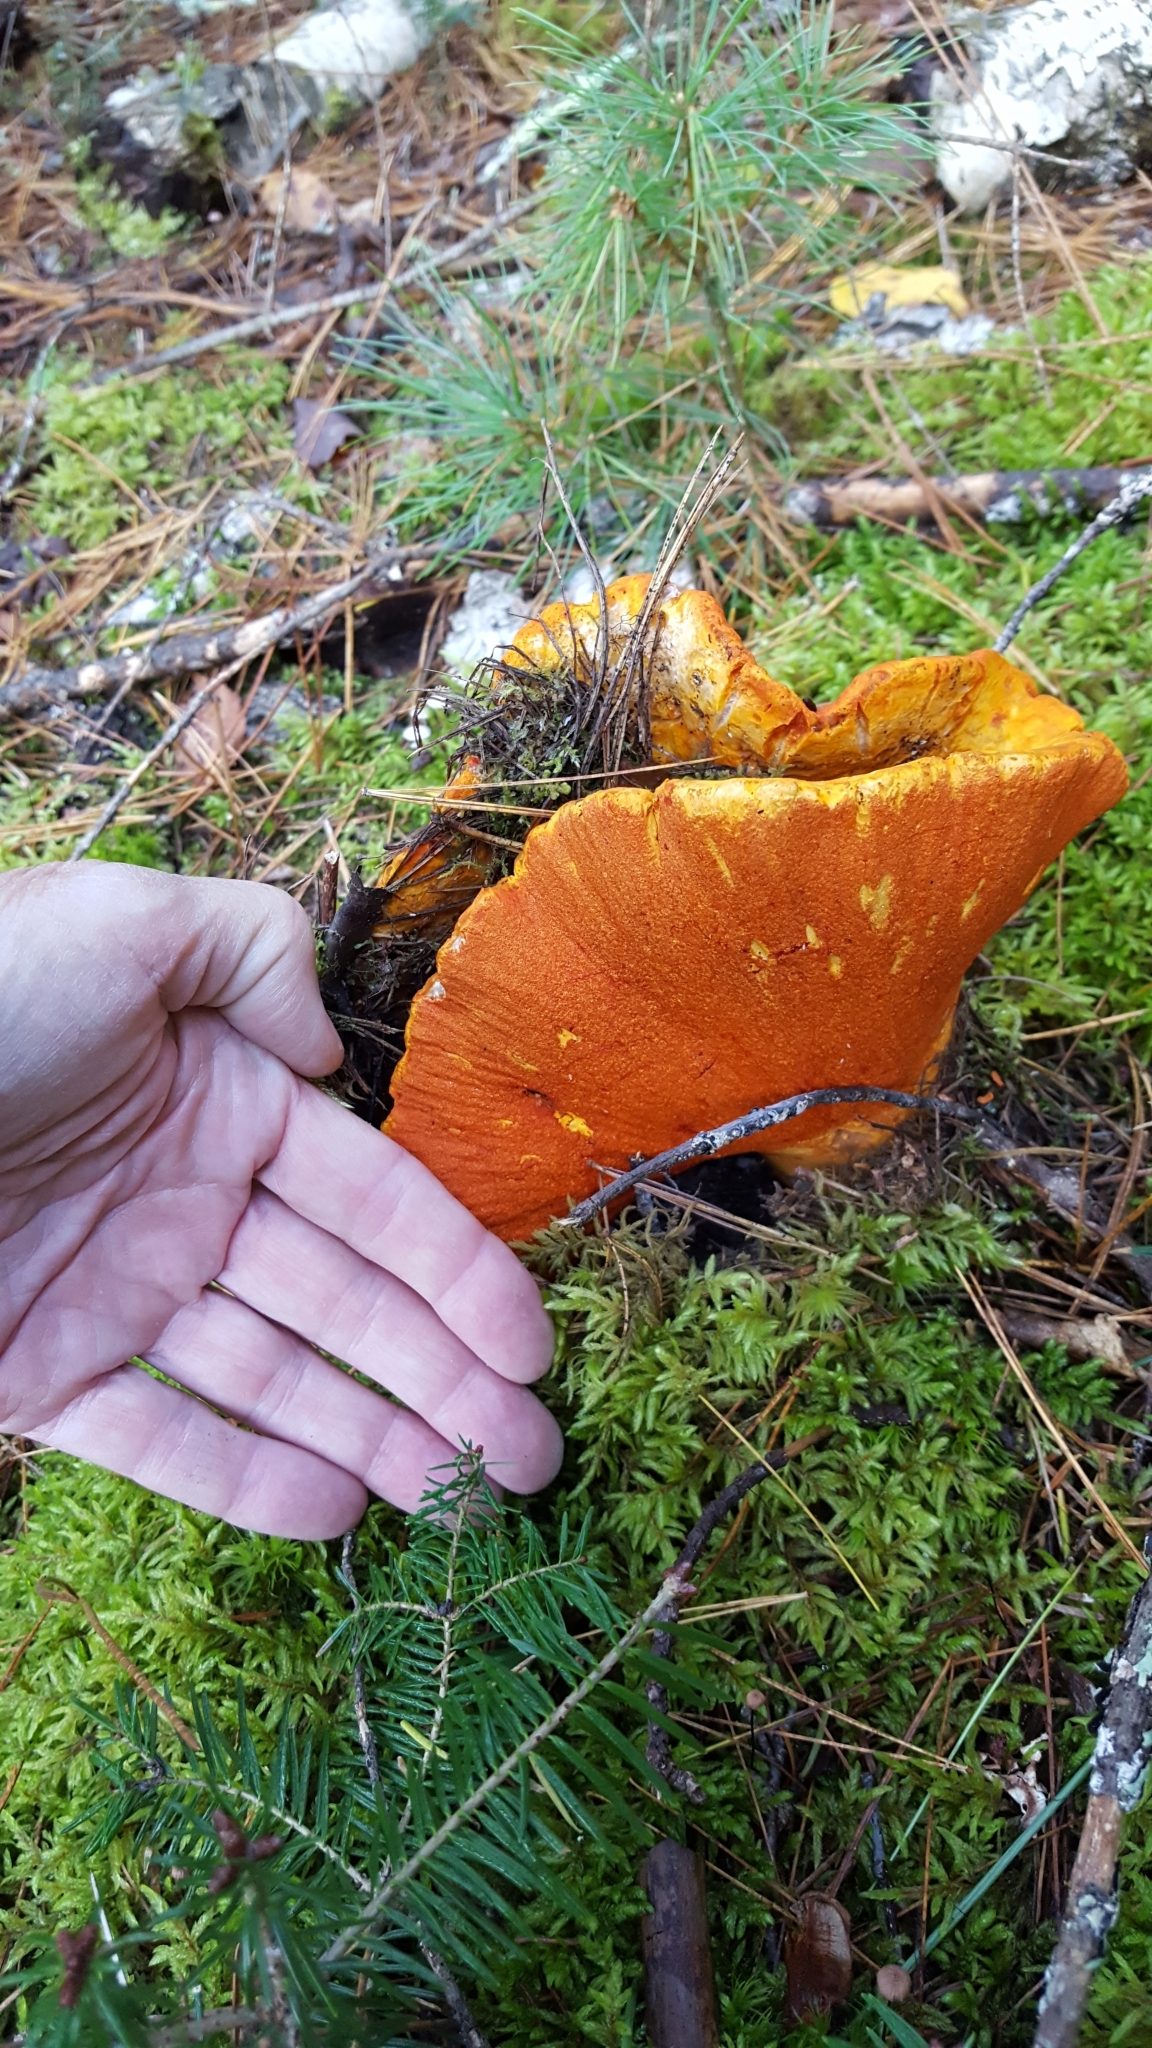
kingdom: Fungi
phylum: Ascomycota
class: Sordariomycetes
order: Hypocreales
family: Hypocreaceae
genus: Hypomyces
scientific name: Hypomyces lactifluorum
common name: Lobster mushroom
